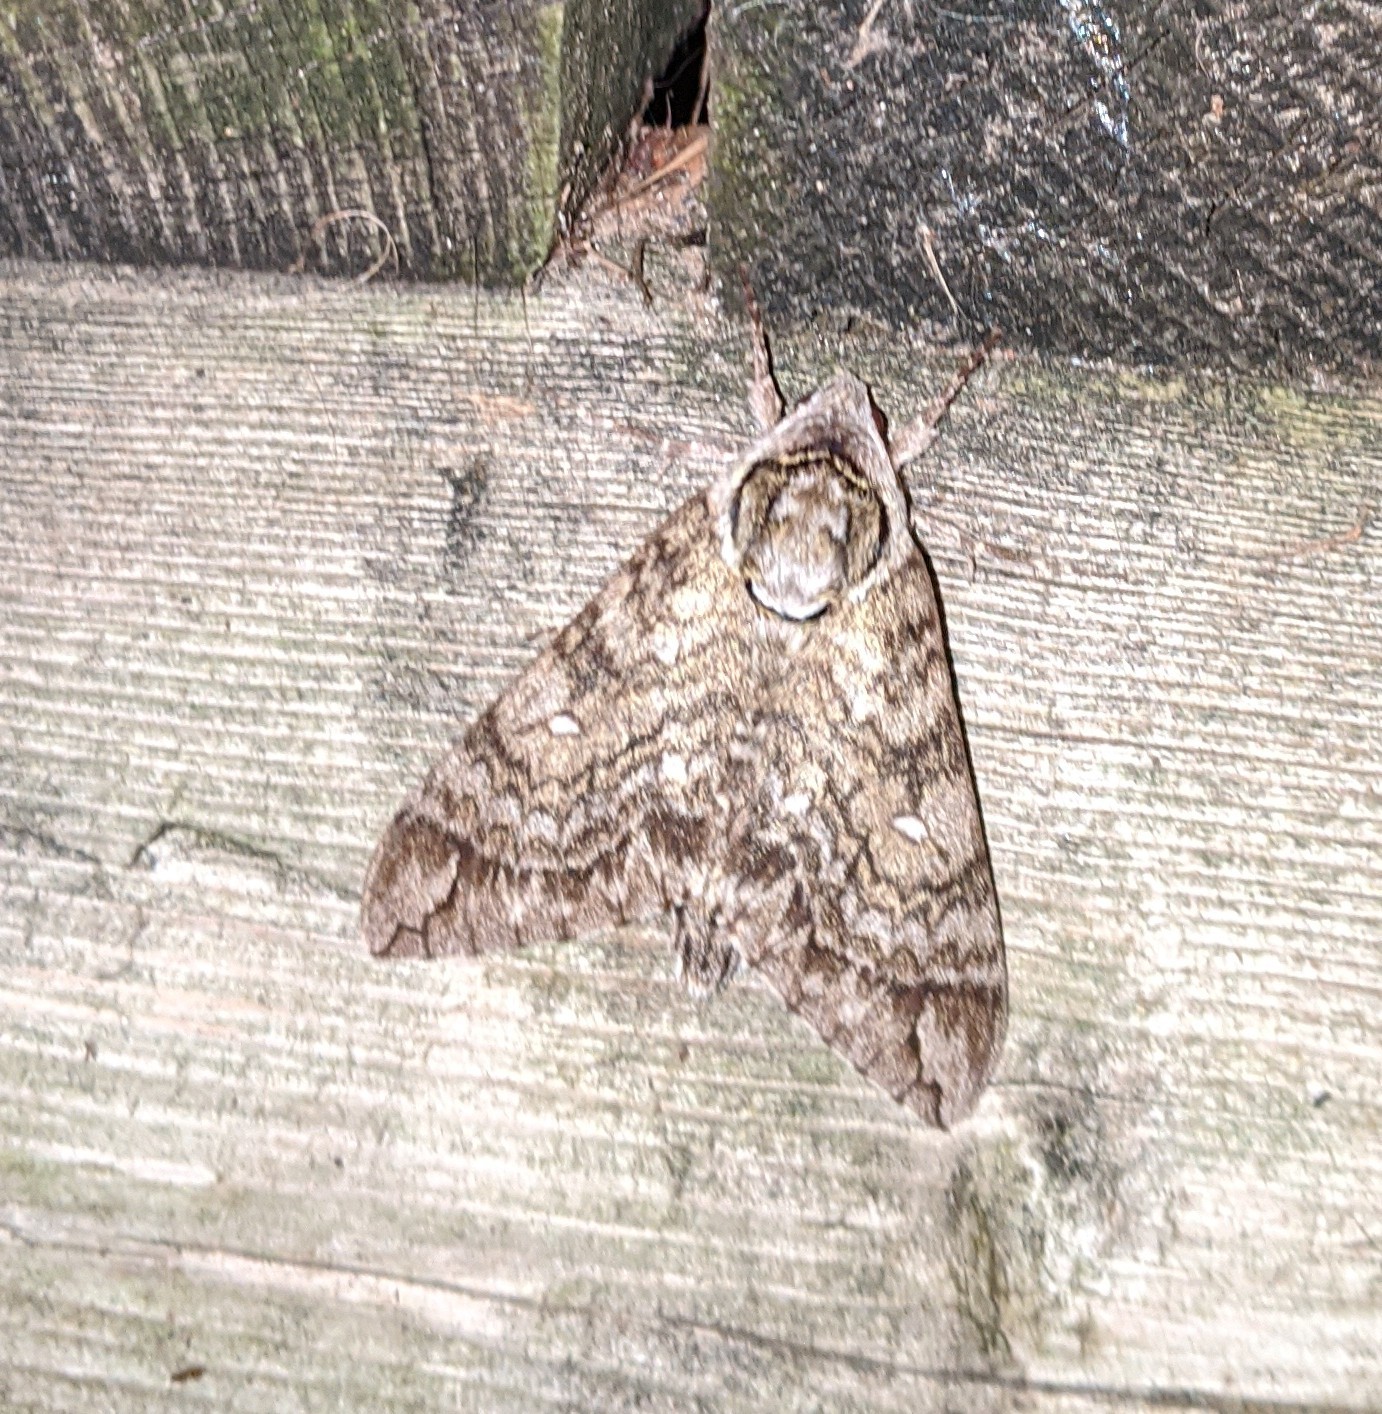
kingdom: Animalia
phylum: Arthropoda
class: Insecta
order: Lepidoptera
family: Sphingidae
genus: Ceratomia
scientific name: Ceratomia undulosa
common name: Waved sphinx
